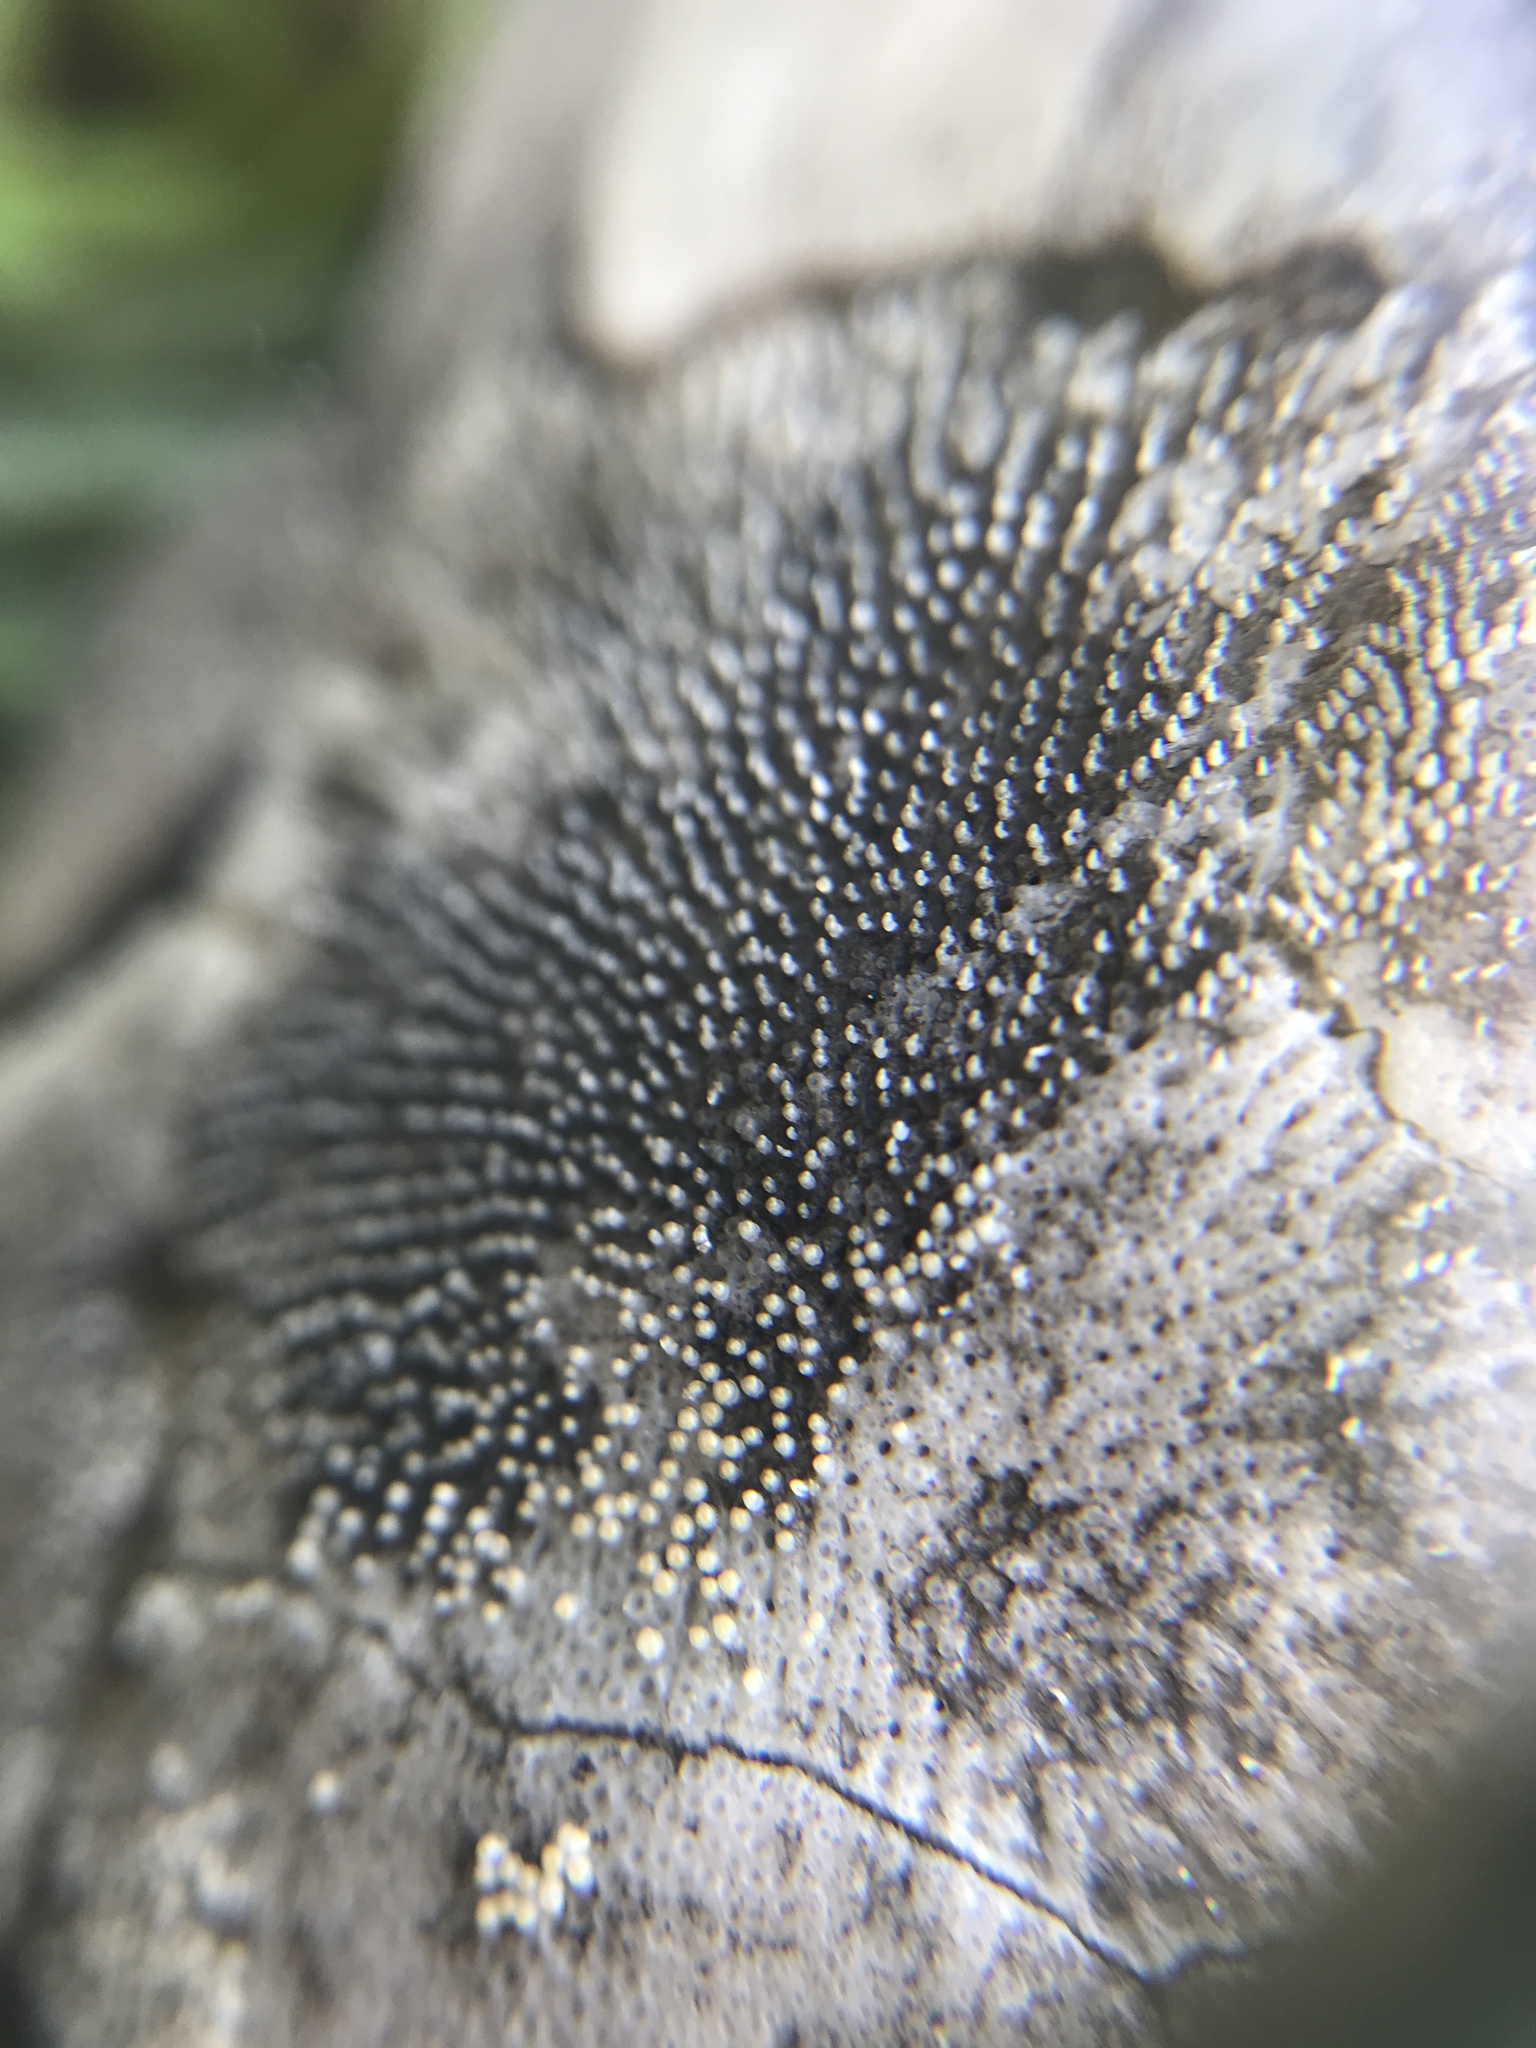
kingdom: Animalia
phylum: Chordata
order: Siluriformes
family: Loricariidae
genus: Pterygoplichthys
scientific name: Pterygoplichthys
